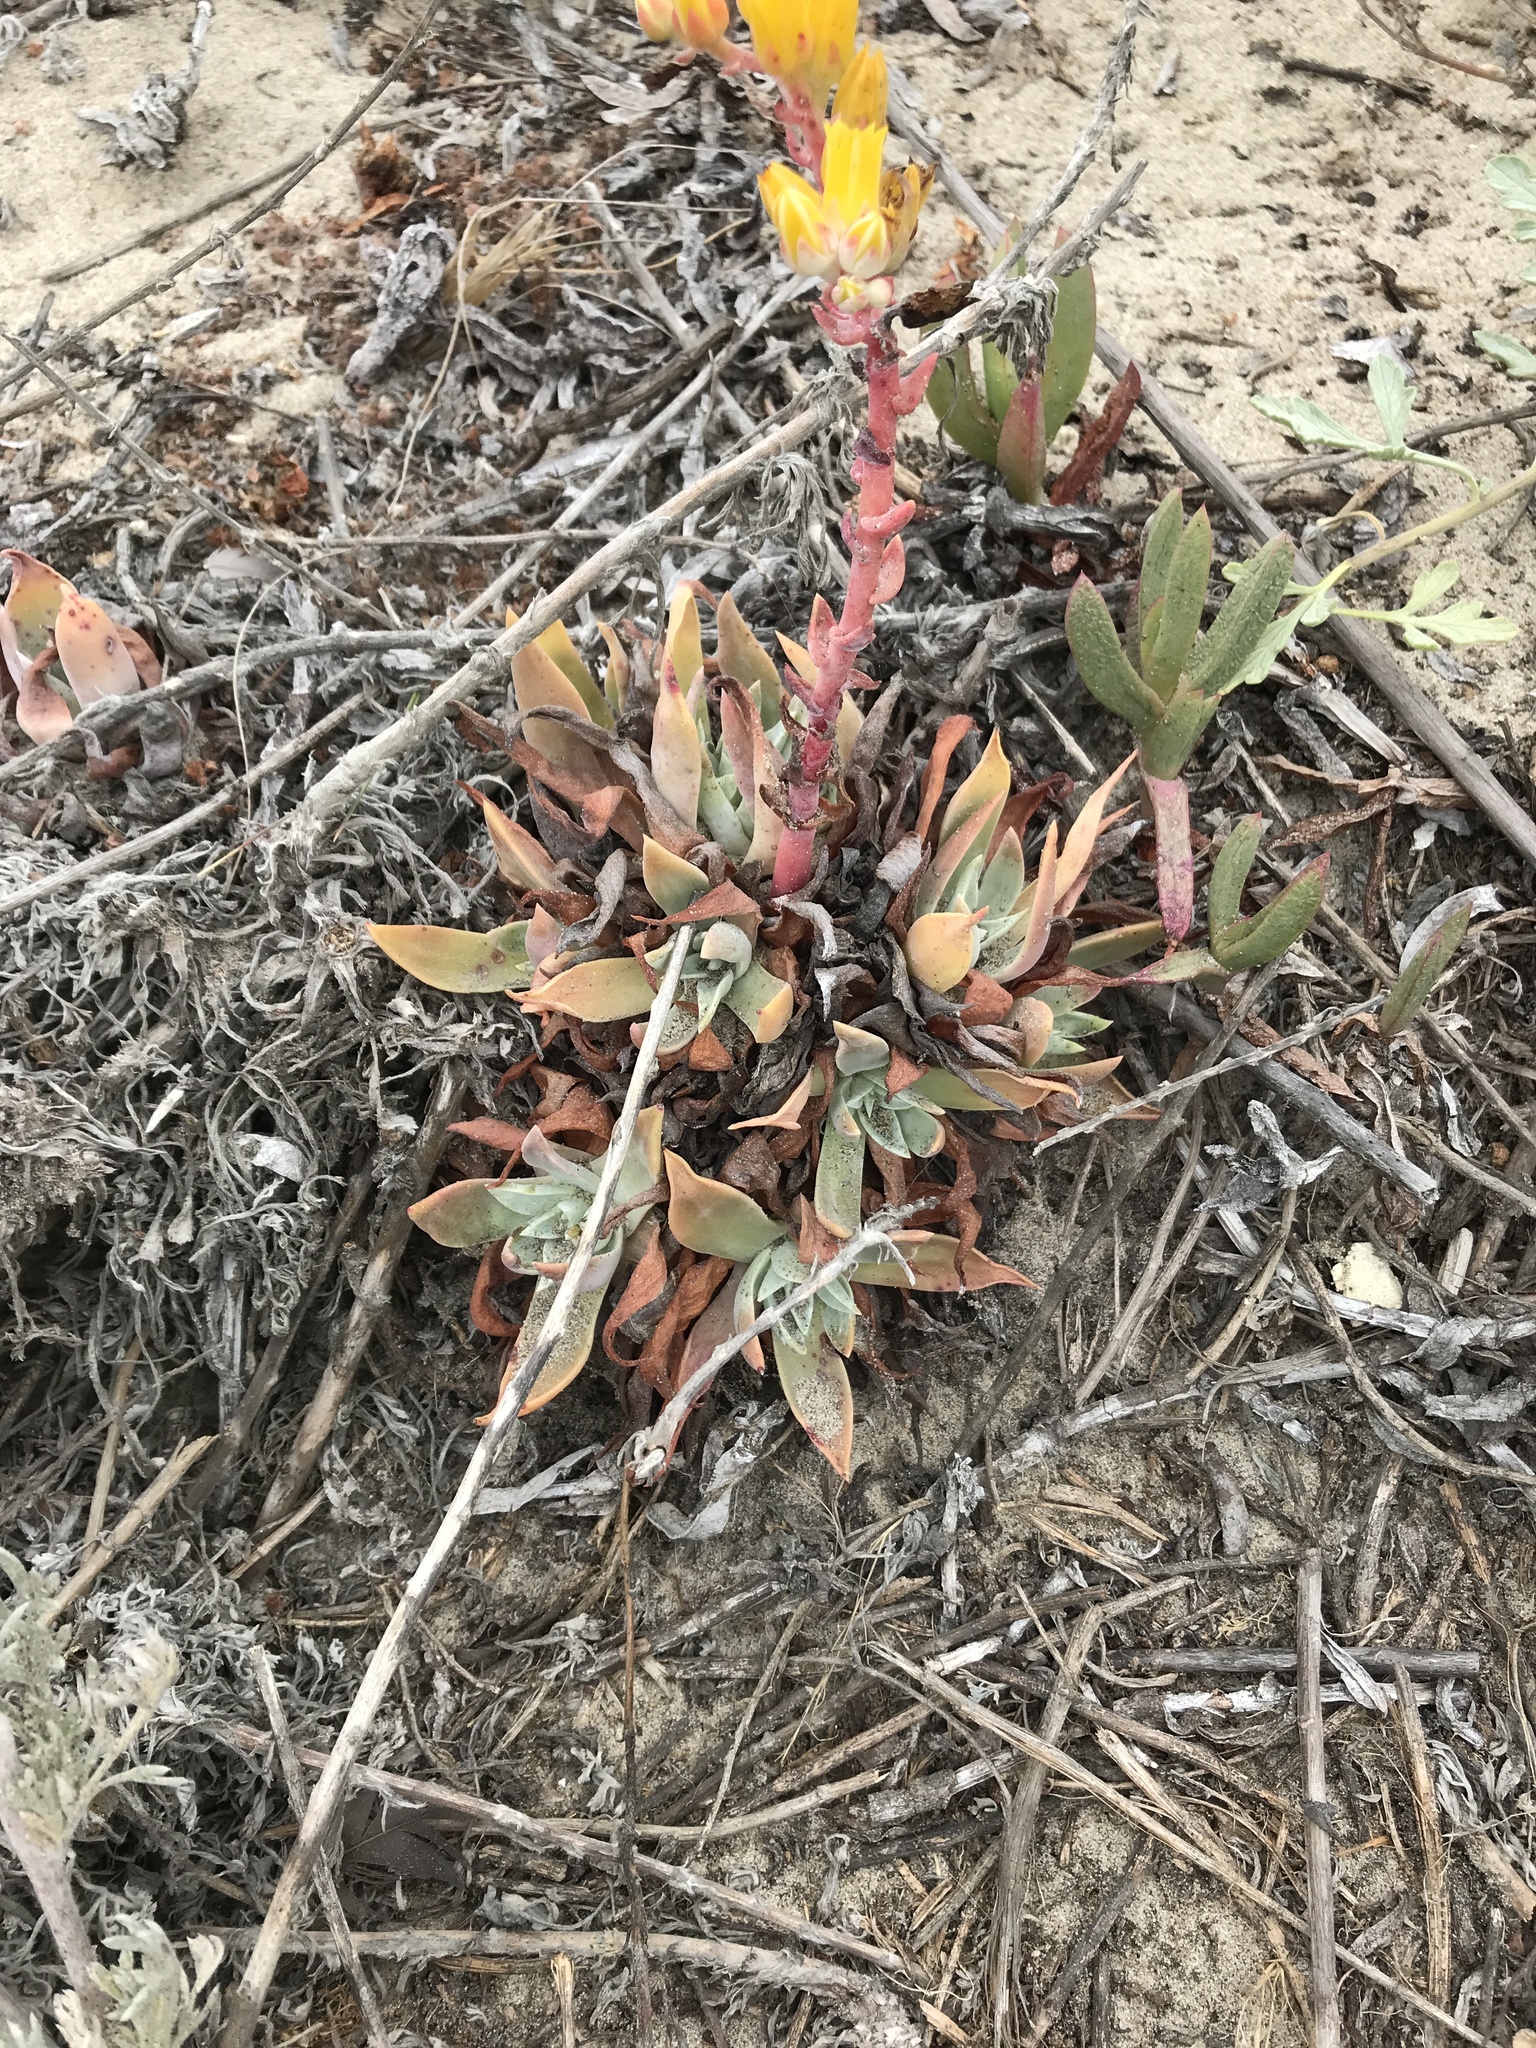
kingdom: Plantae
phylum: Tracheophyta
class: Magnoliopsida
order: Saxifragales
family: Crassulaceae
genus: Dudleya
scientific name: Dudleya caespitosa
